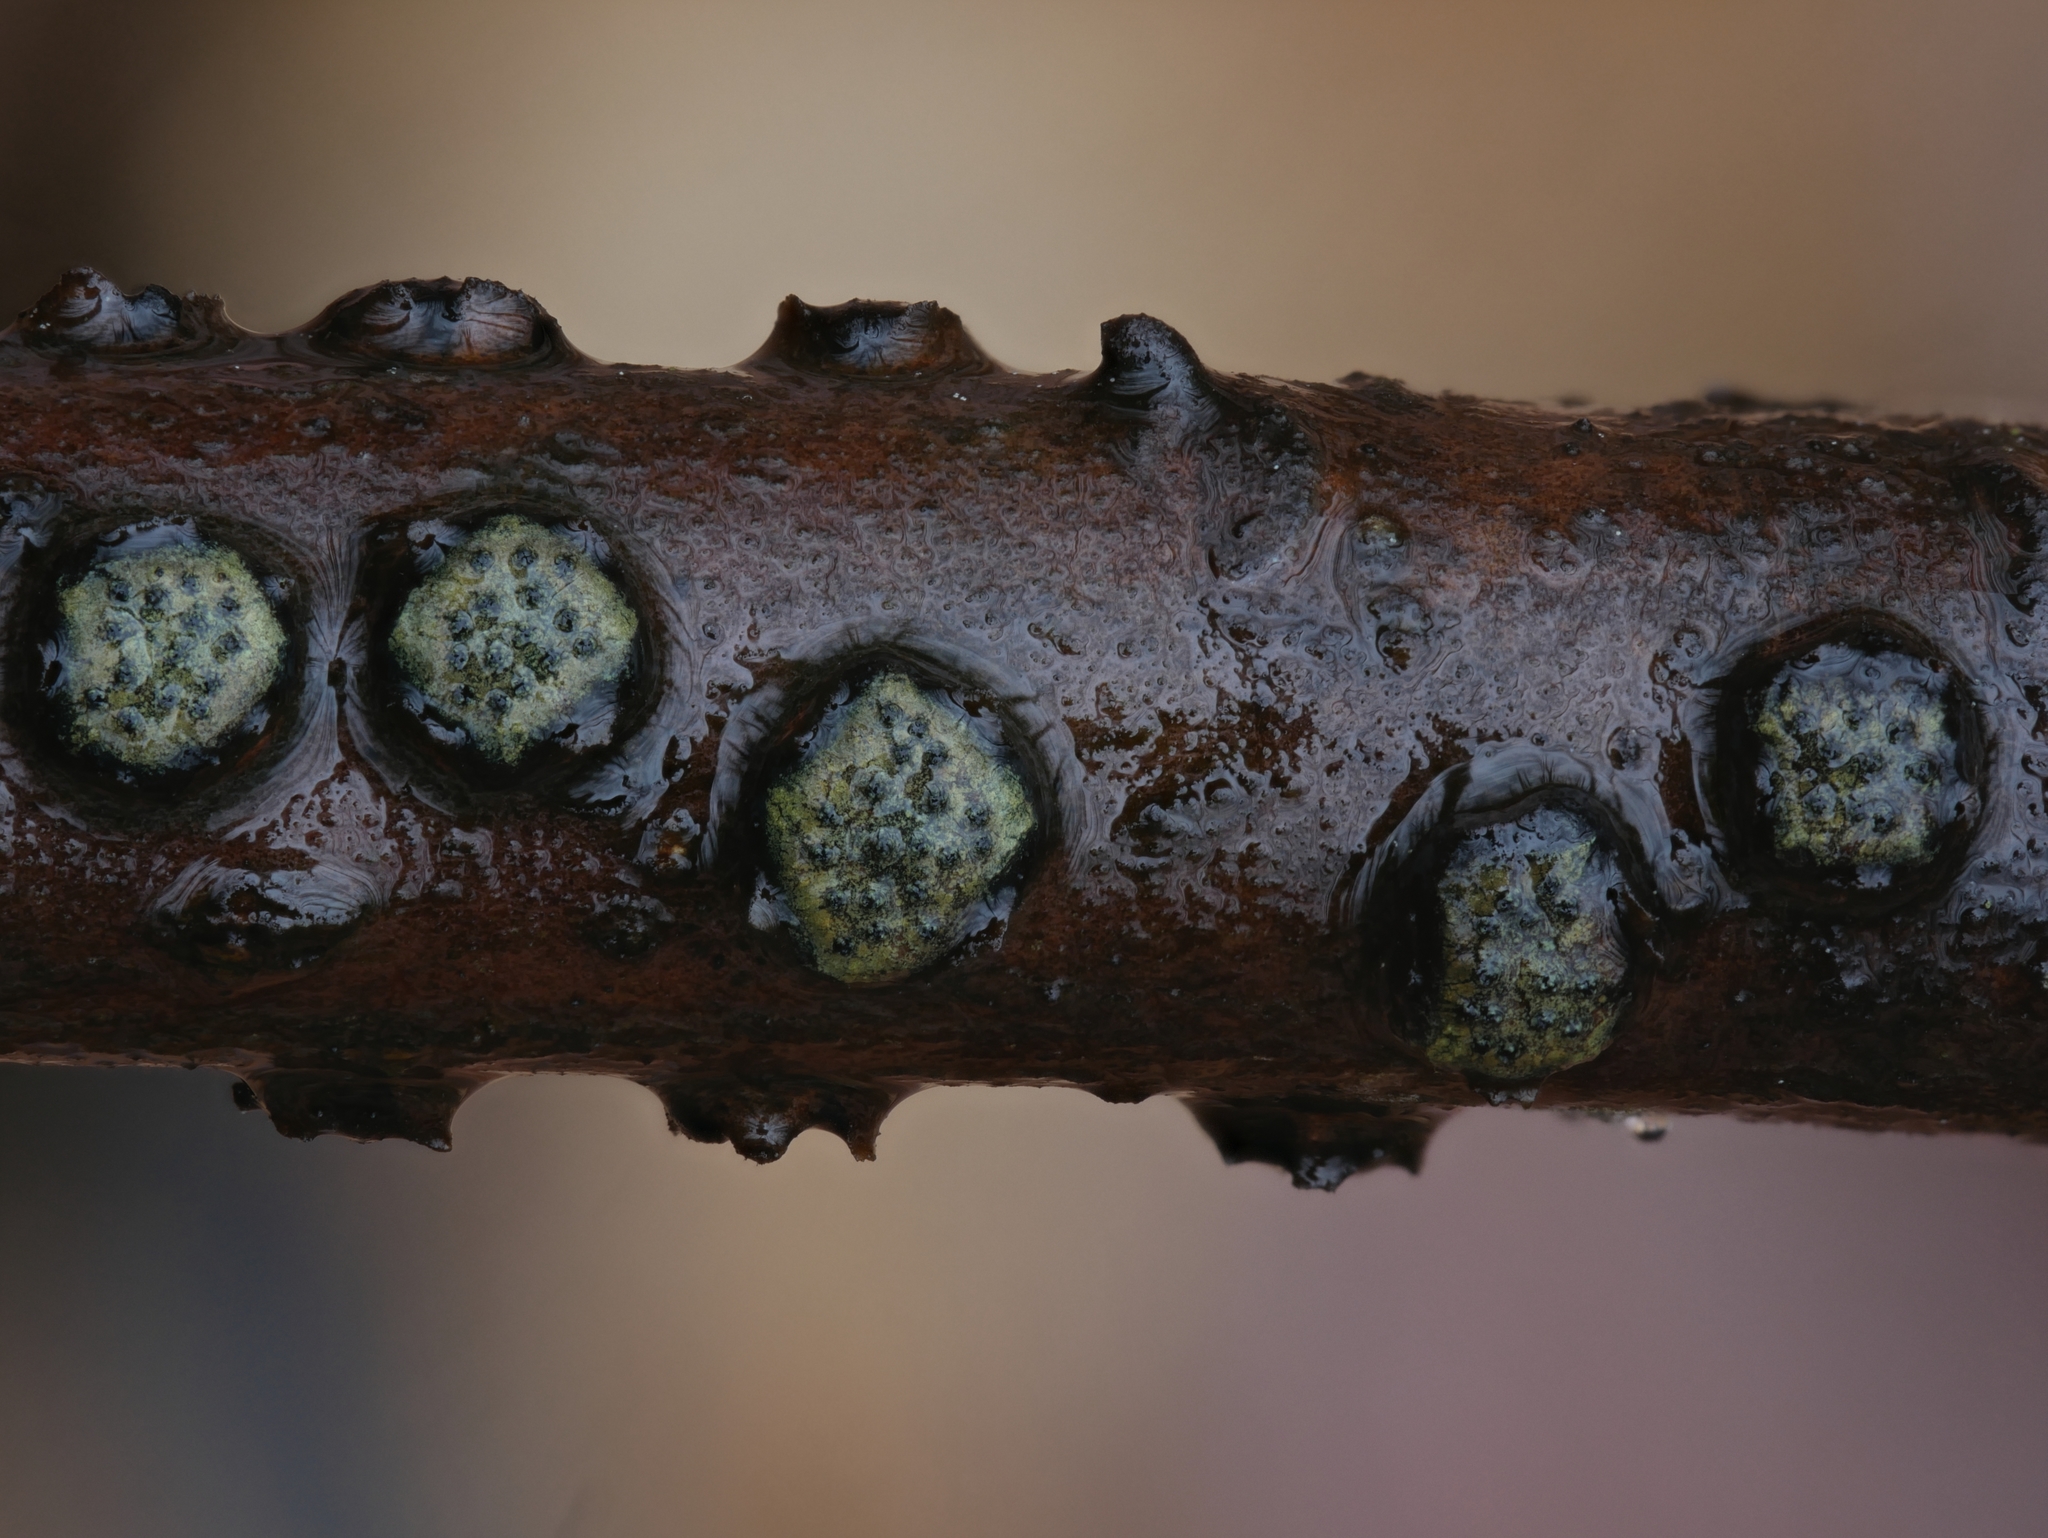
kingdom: Fungi
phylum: Ascomycota
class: Sordariomycetes
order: Xylariales
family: Diatrypaceae
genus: Diatrype
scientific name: Diatrype virescens
